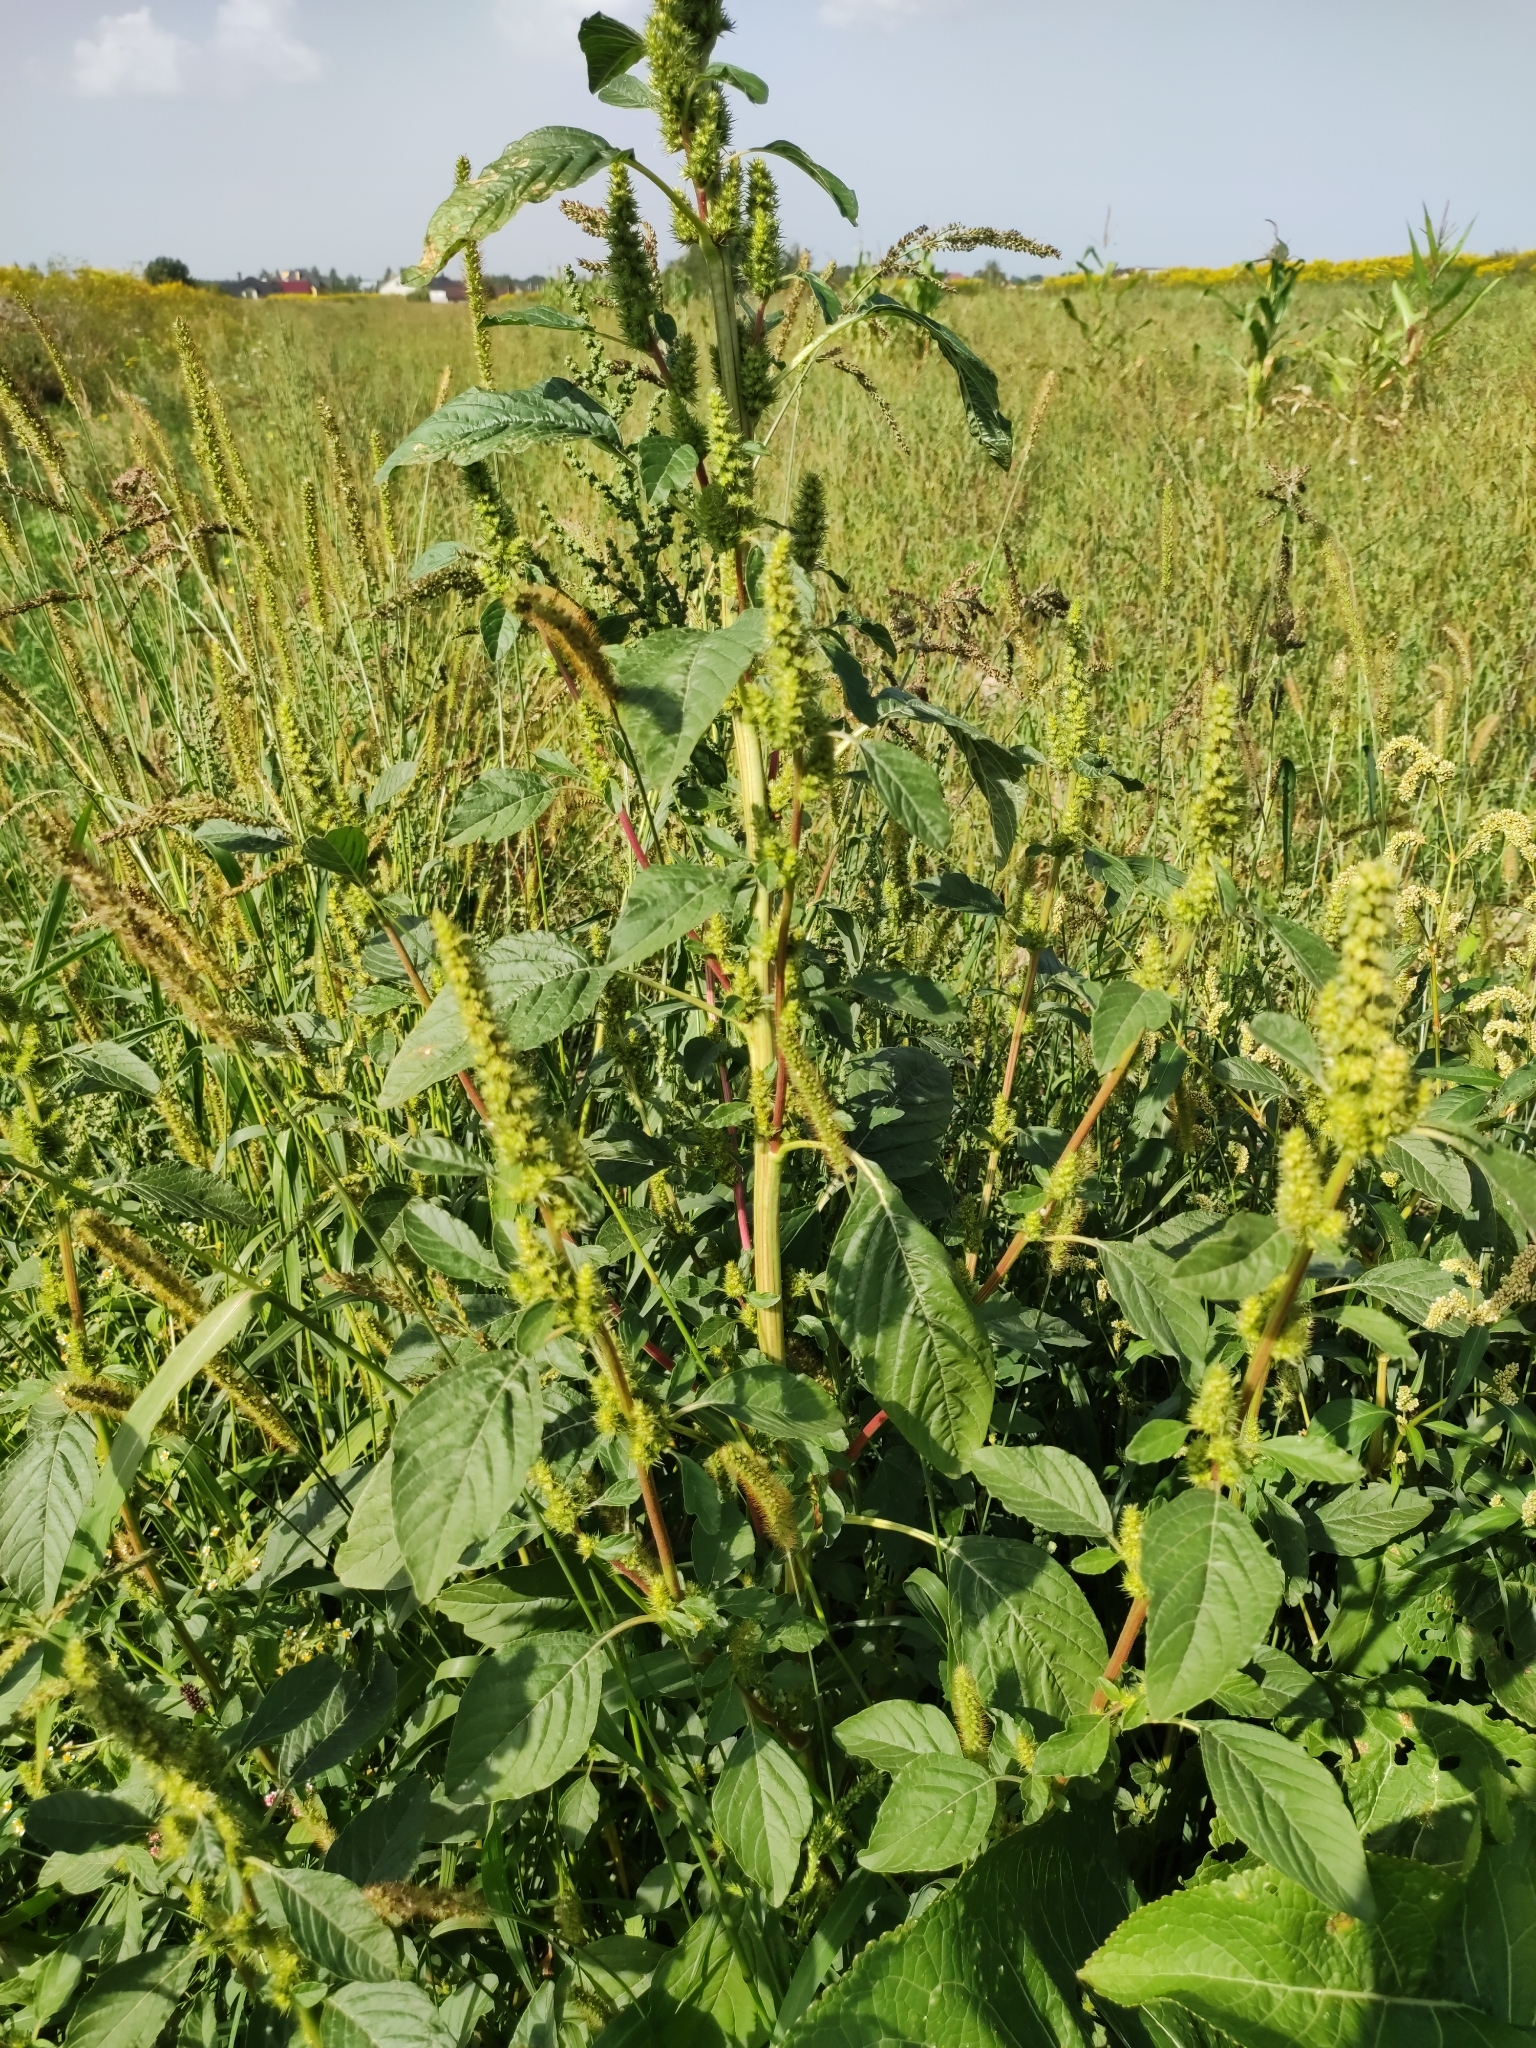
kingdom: Plantae
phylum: Tracheophyta
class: Magnoliopsida
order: Caryophyllales
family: Amaranthaceae
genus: Amaranthus
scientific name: Amaranthus powellii
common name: Powell's amaranth
